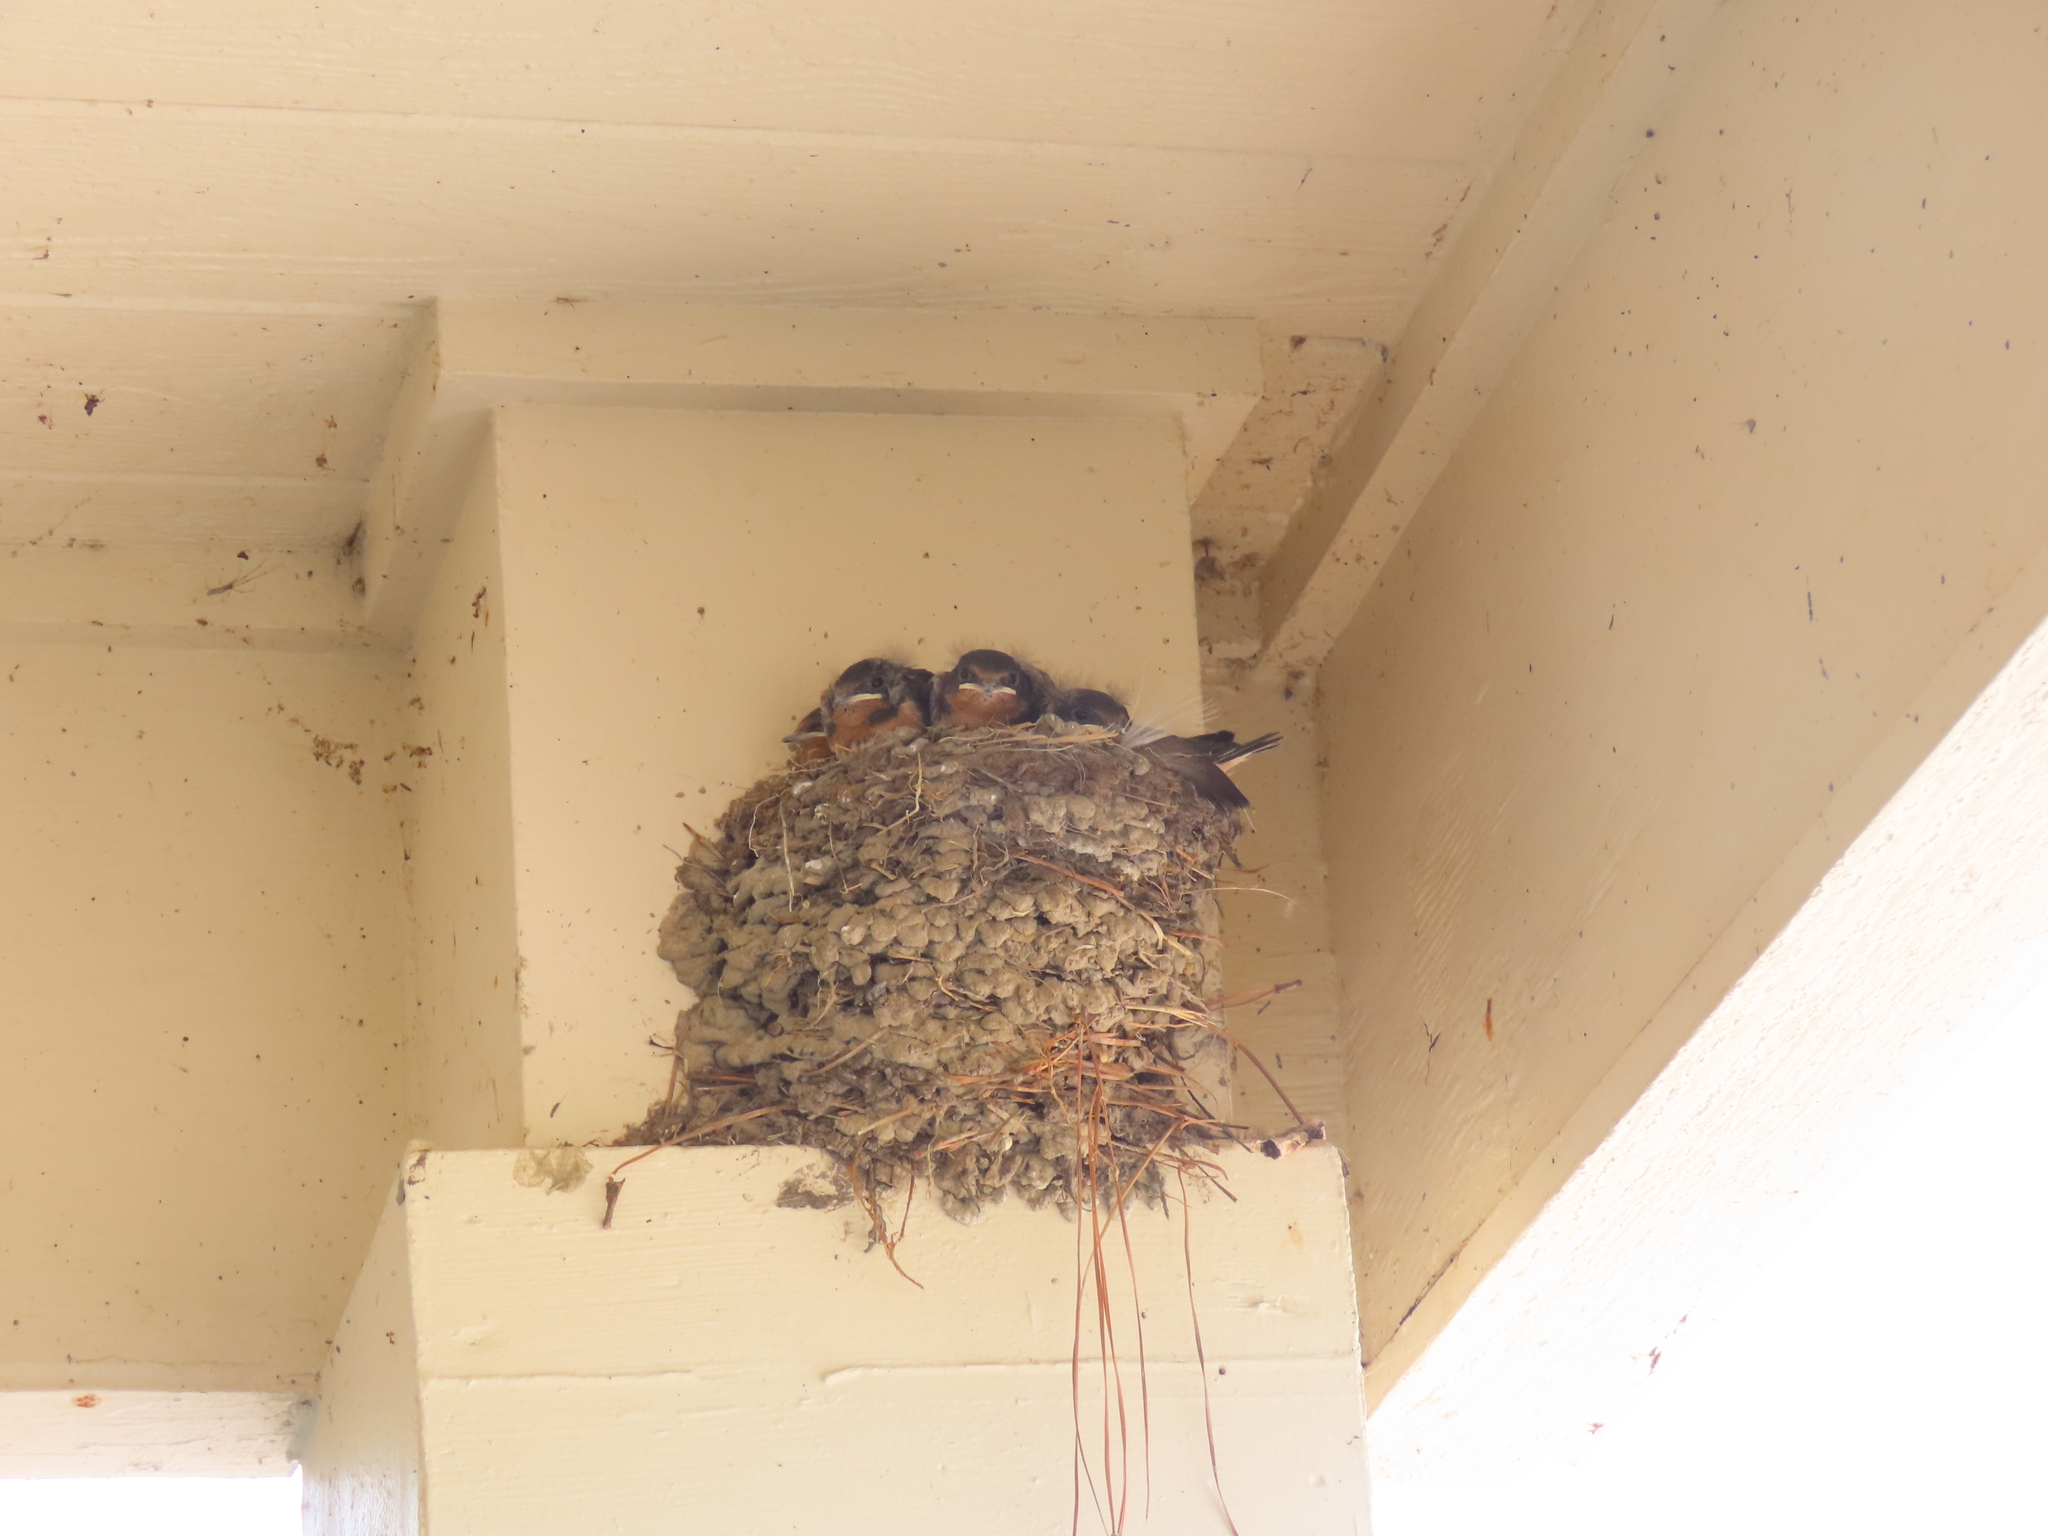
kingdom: Animalia
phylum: Chordata
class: Aves
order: Passeriformes
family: Hirundinidae
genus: Hirundo
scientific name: Hirundo rustica
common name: Barn swallow
